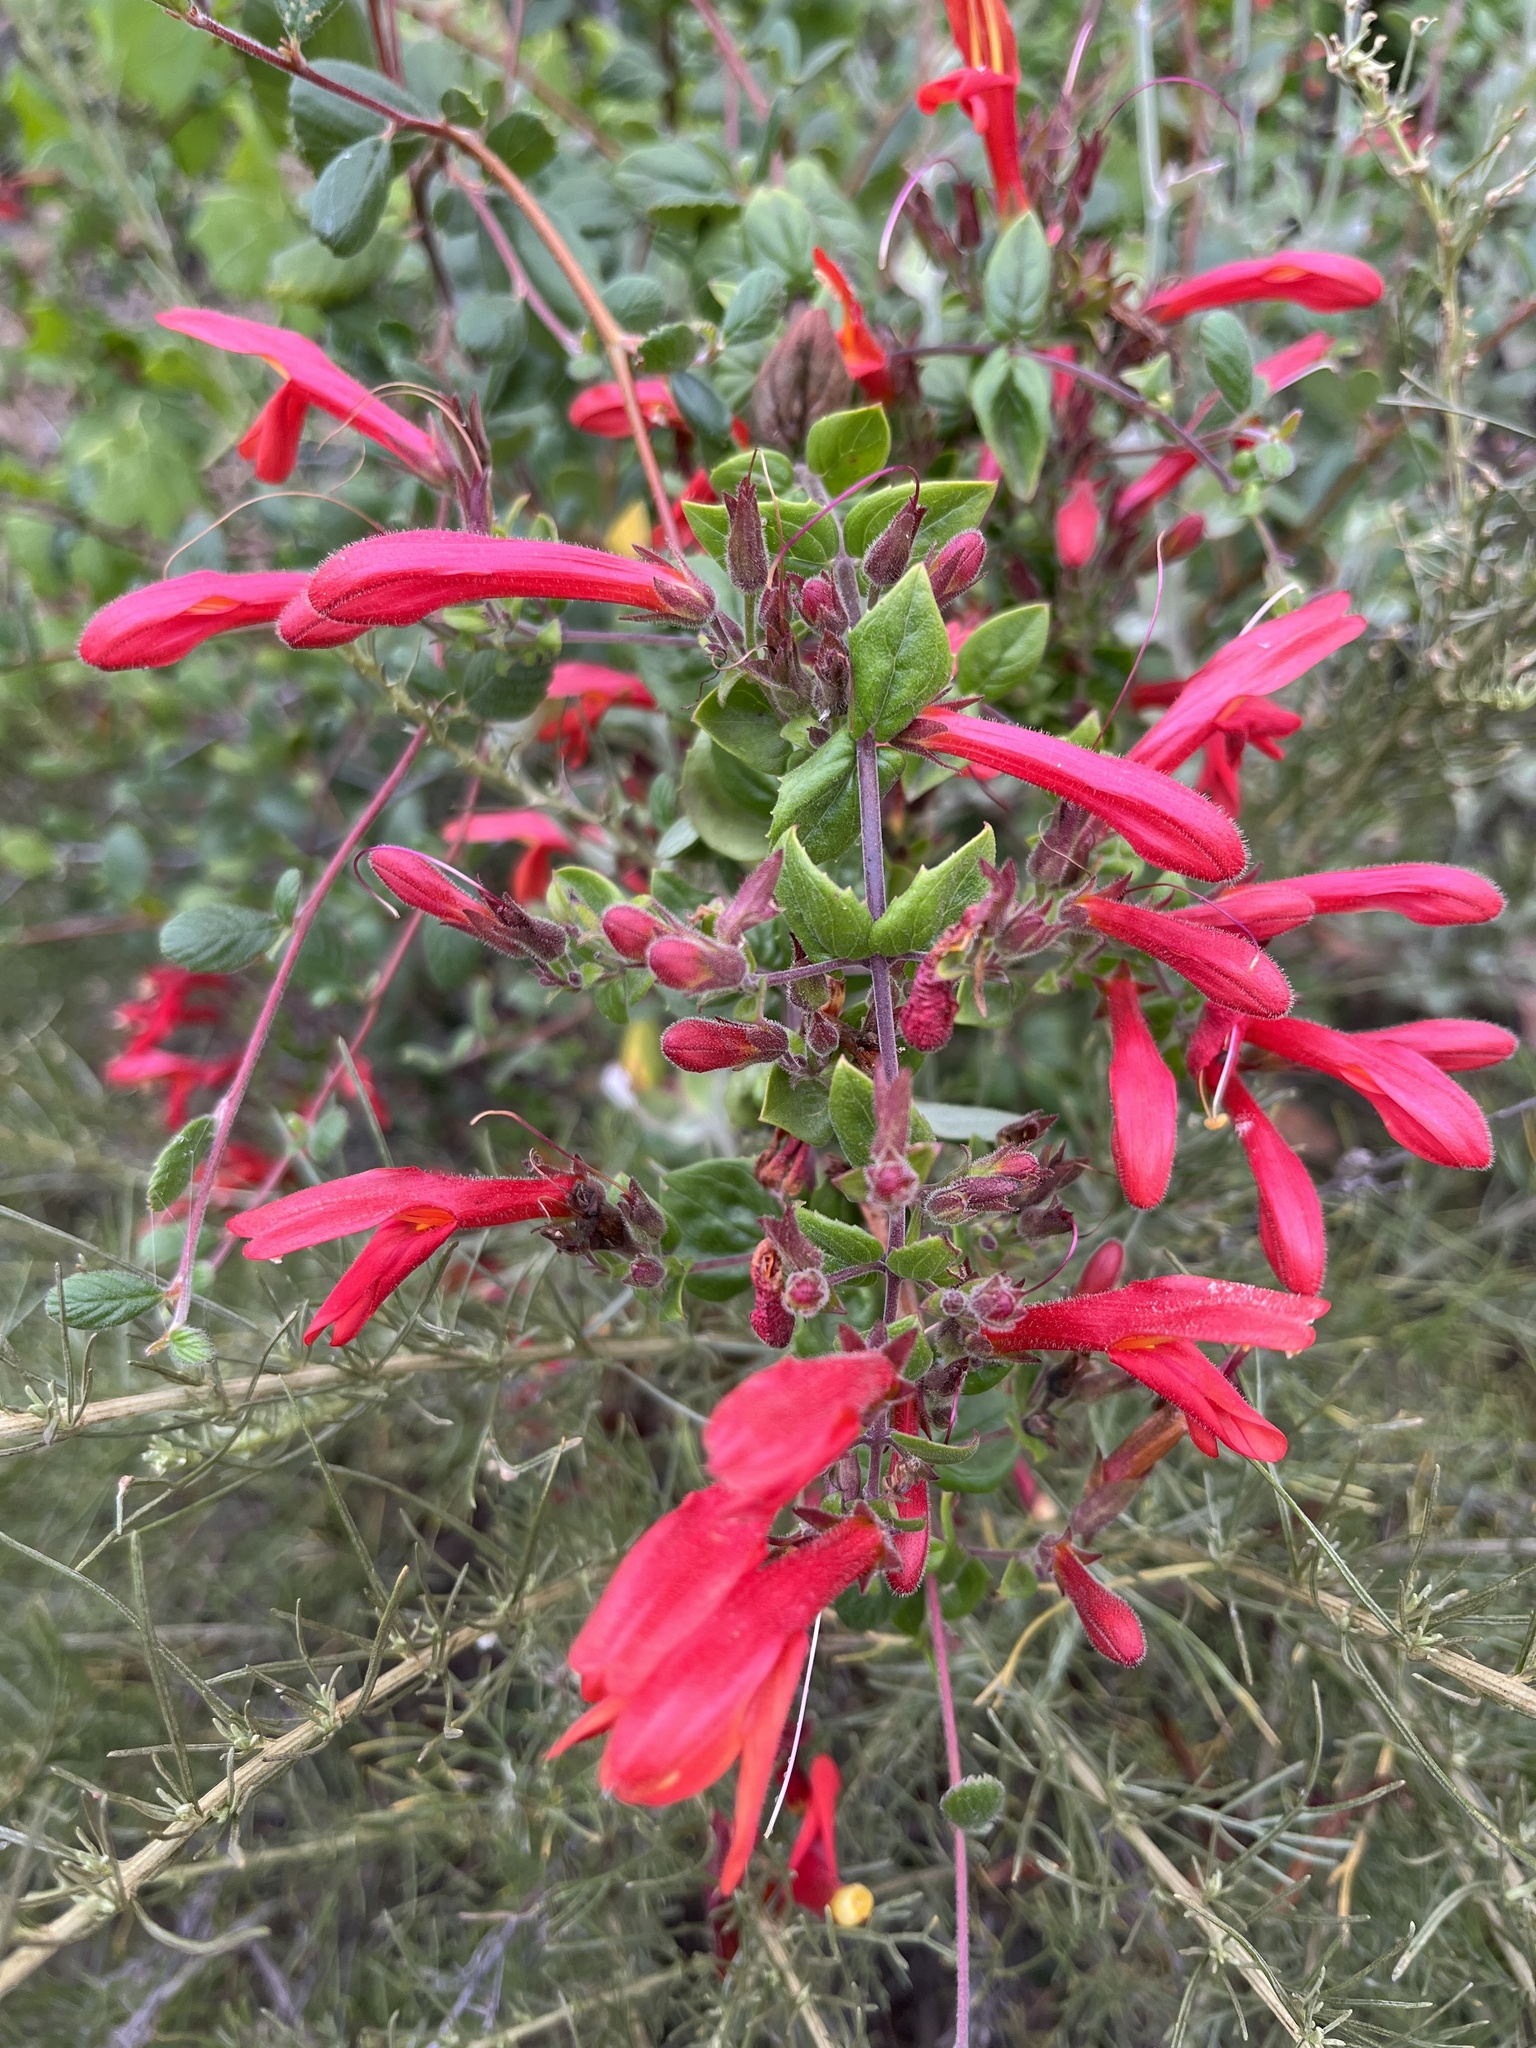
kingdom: Plantae
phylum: Tracheophyta
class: Magnoliopsida
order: Lamiales
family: Plantaginaceae
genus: Keckiella
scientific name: Keckiella cordifolia
